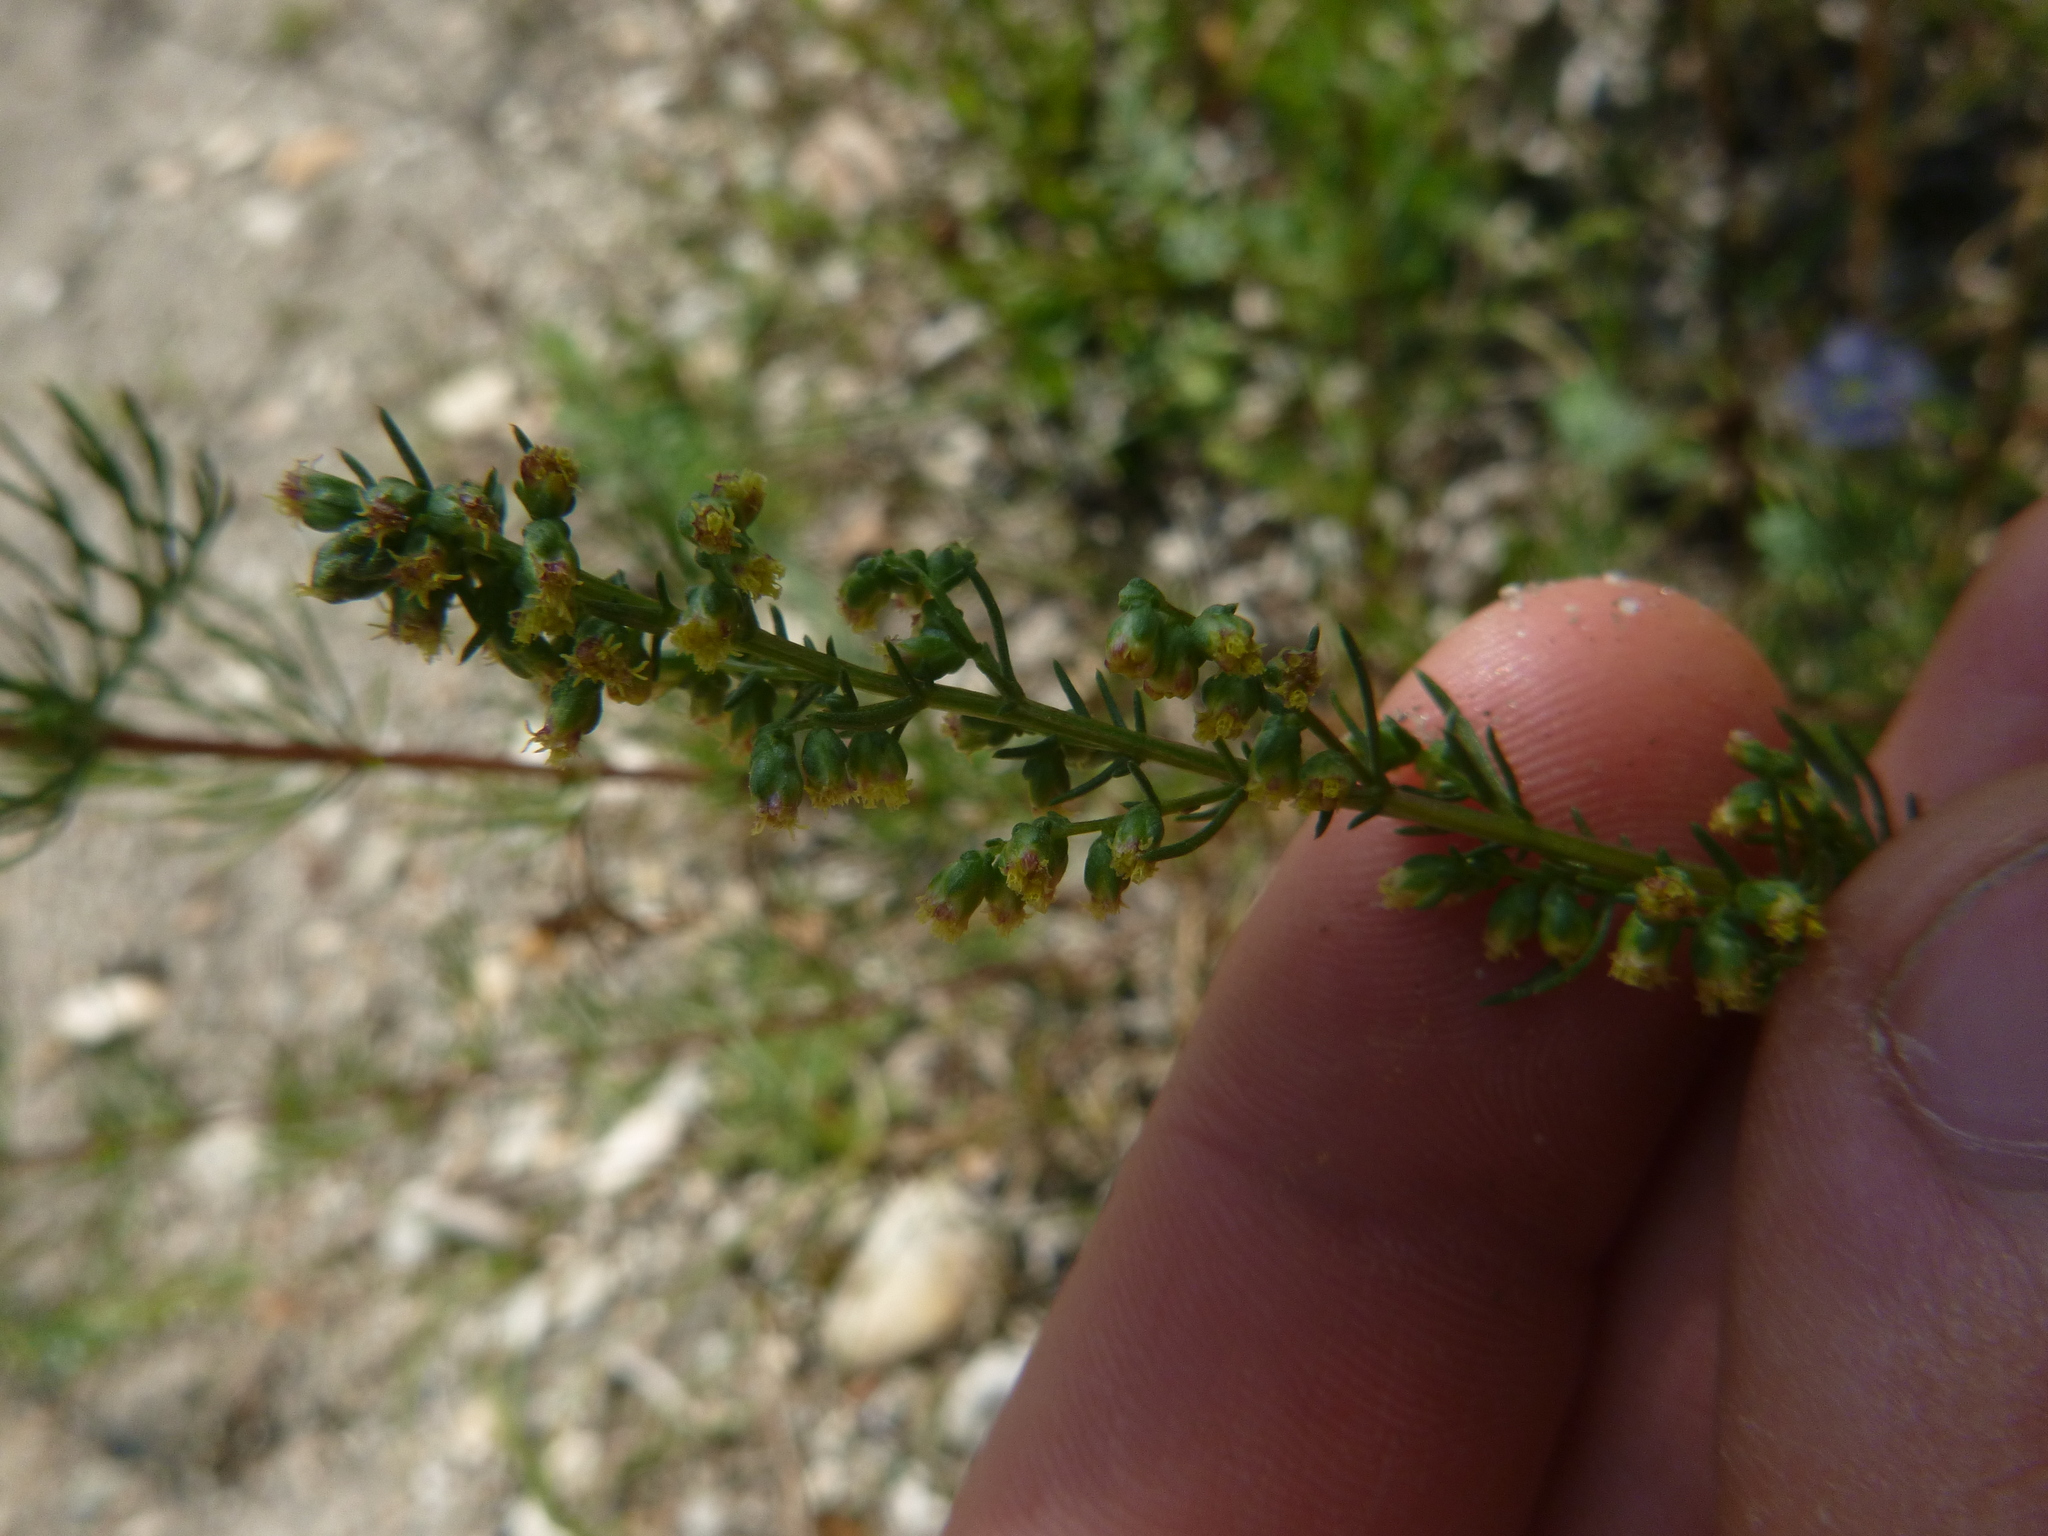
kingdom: Plantae
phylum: Tracheophyta
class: Magnoliopsida
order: Asterales
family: Asteraceae
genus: Artemisia
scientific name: Artemisia campestris
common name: Field wormwood
